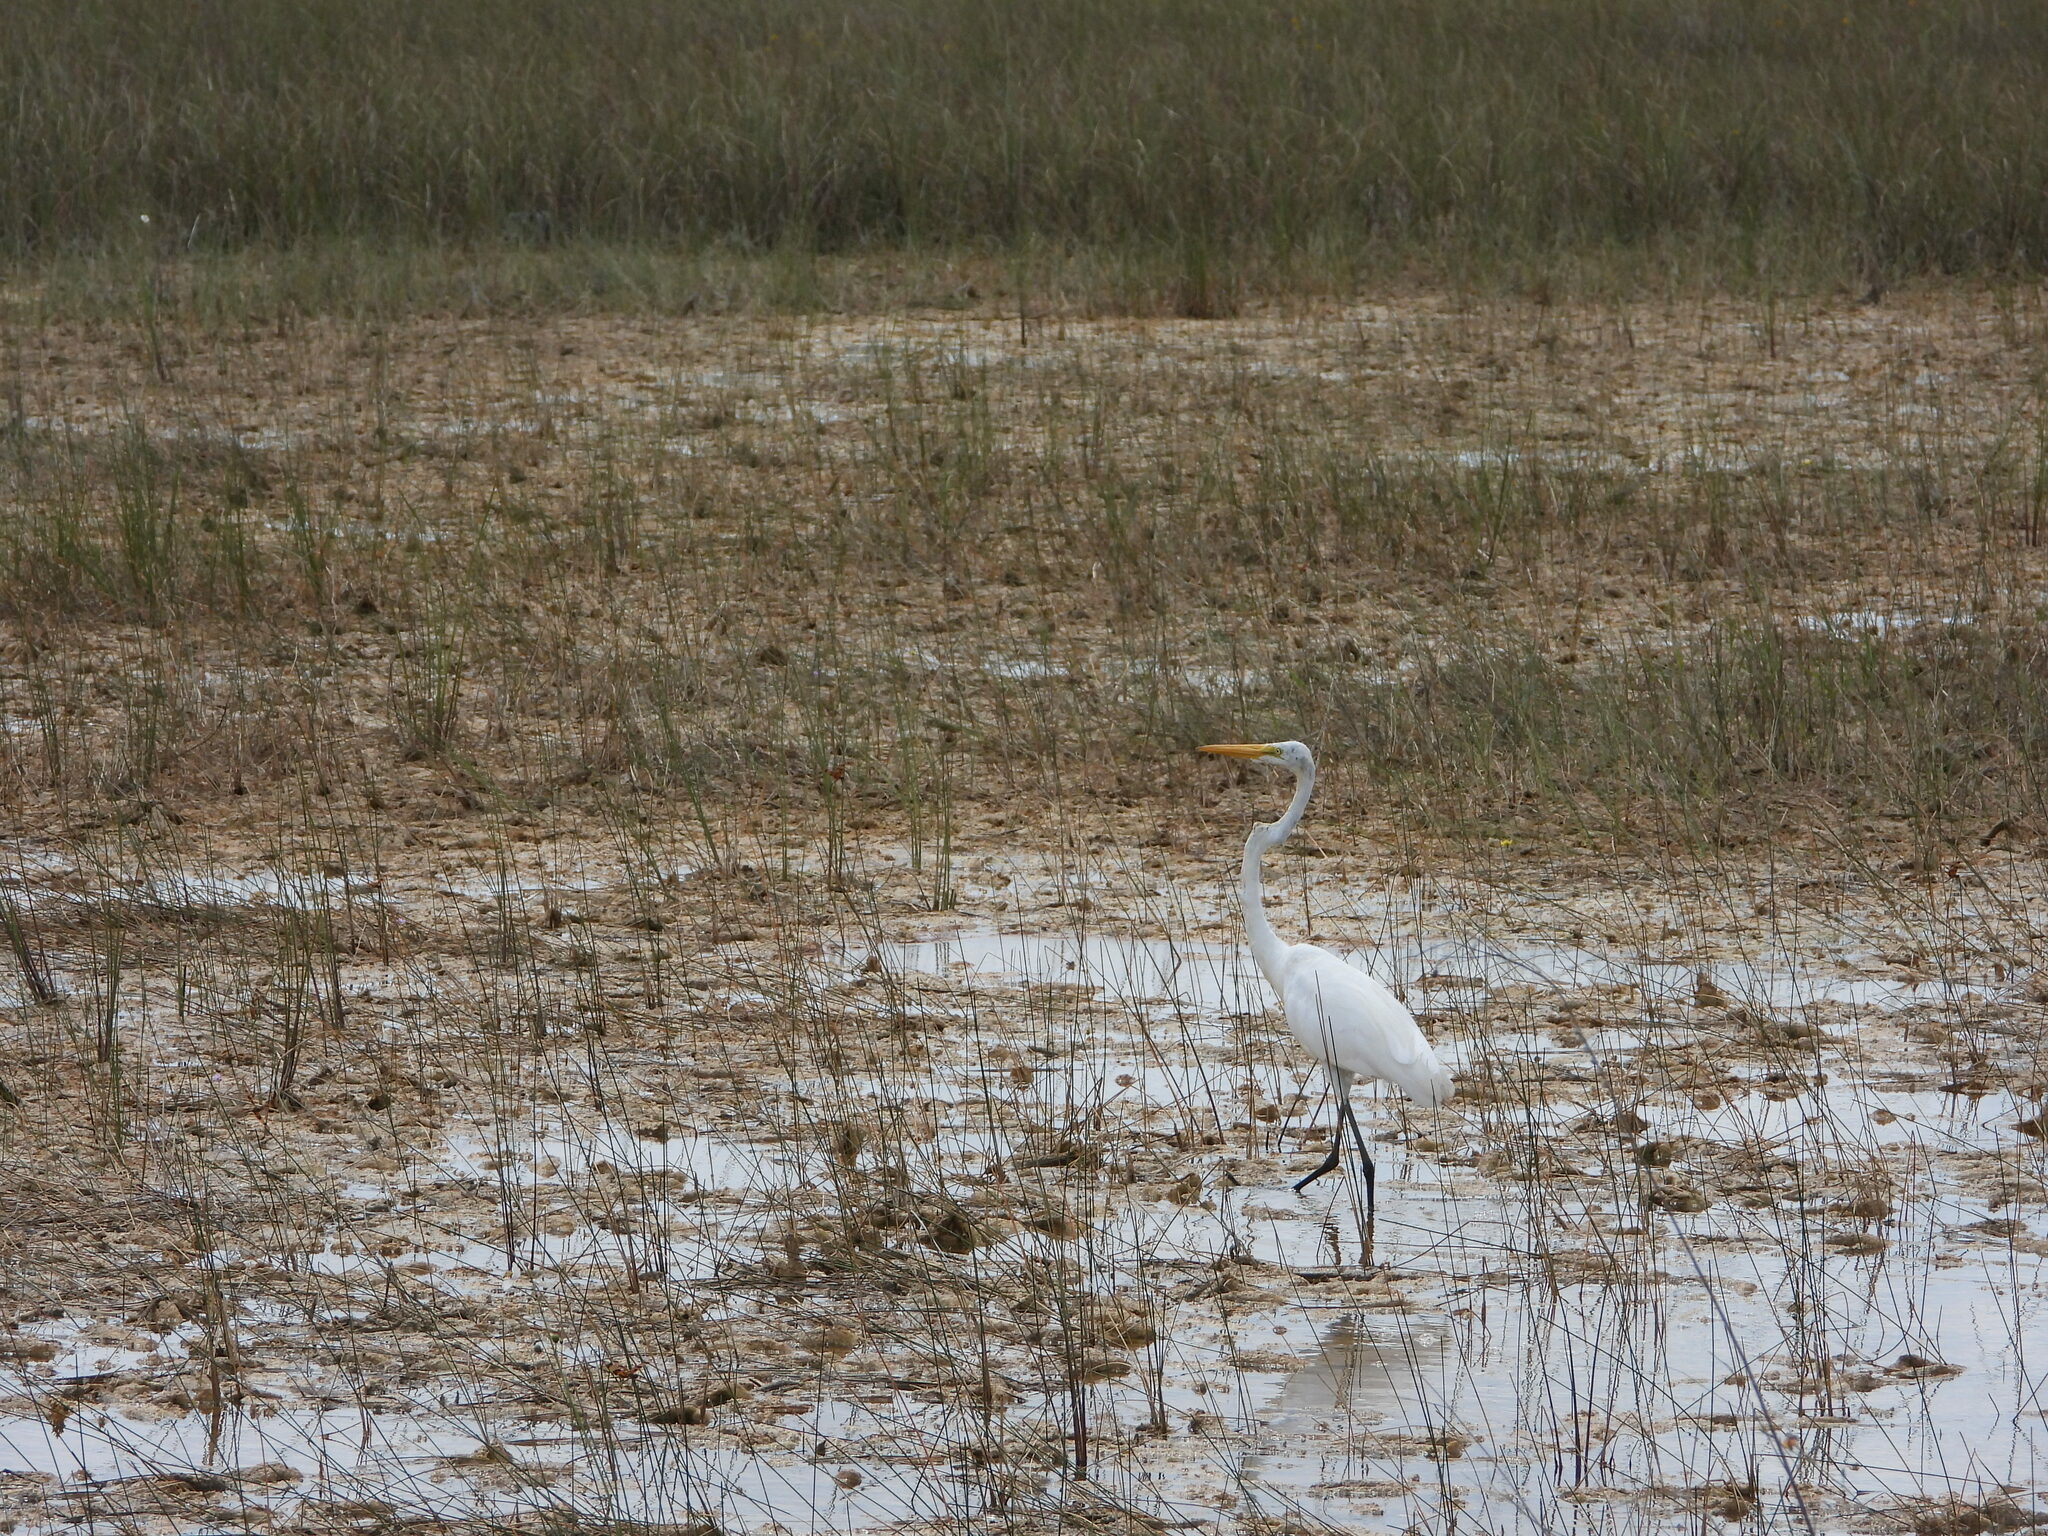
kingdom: Animalia
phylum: Chordata
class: Aves
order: Pelecaniformes
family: Ardeidae
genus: Ardea
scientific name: Ardea alba
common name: Great egret
